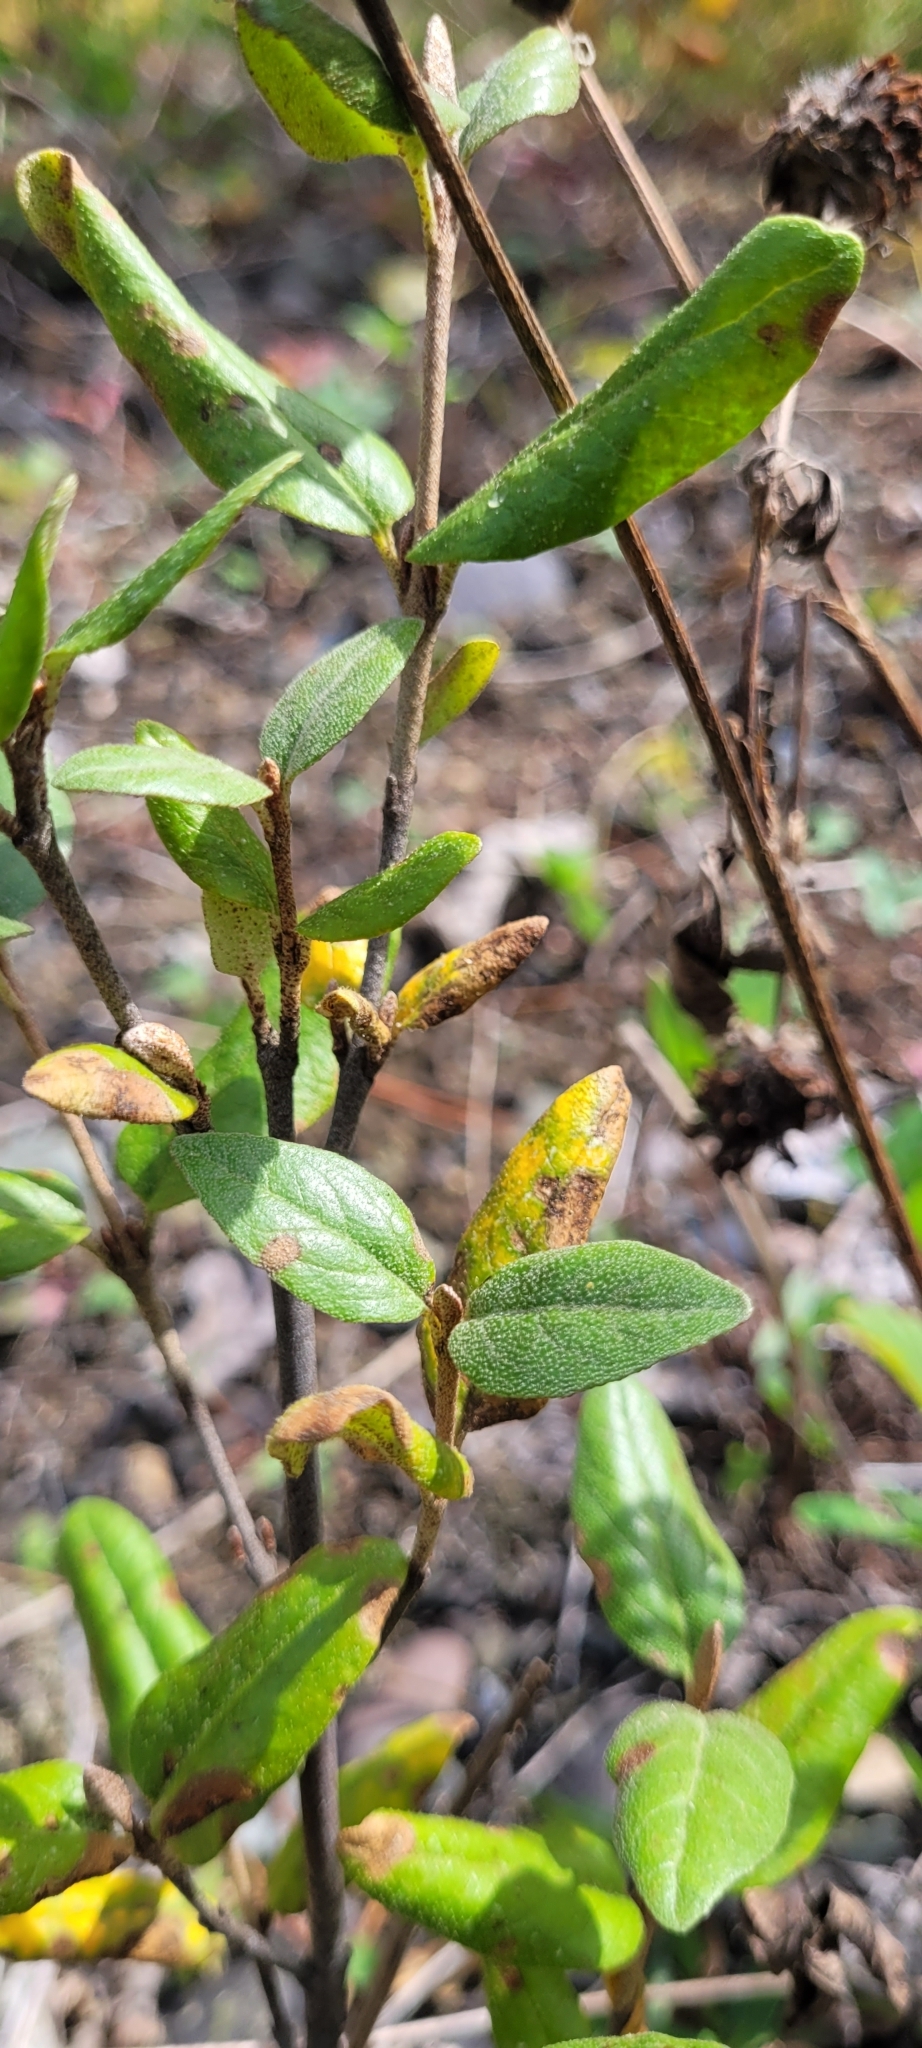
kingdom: Plantae
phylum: Tracheophyta
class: Magnoliopsida
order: Rosales
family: Elaeagnaceae
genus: Shepherdia
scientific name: Shepherdia canadensis
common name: Soapberry
